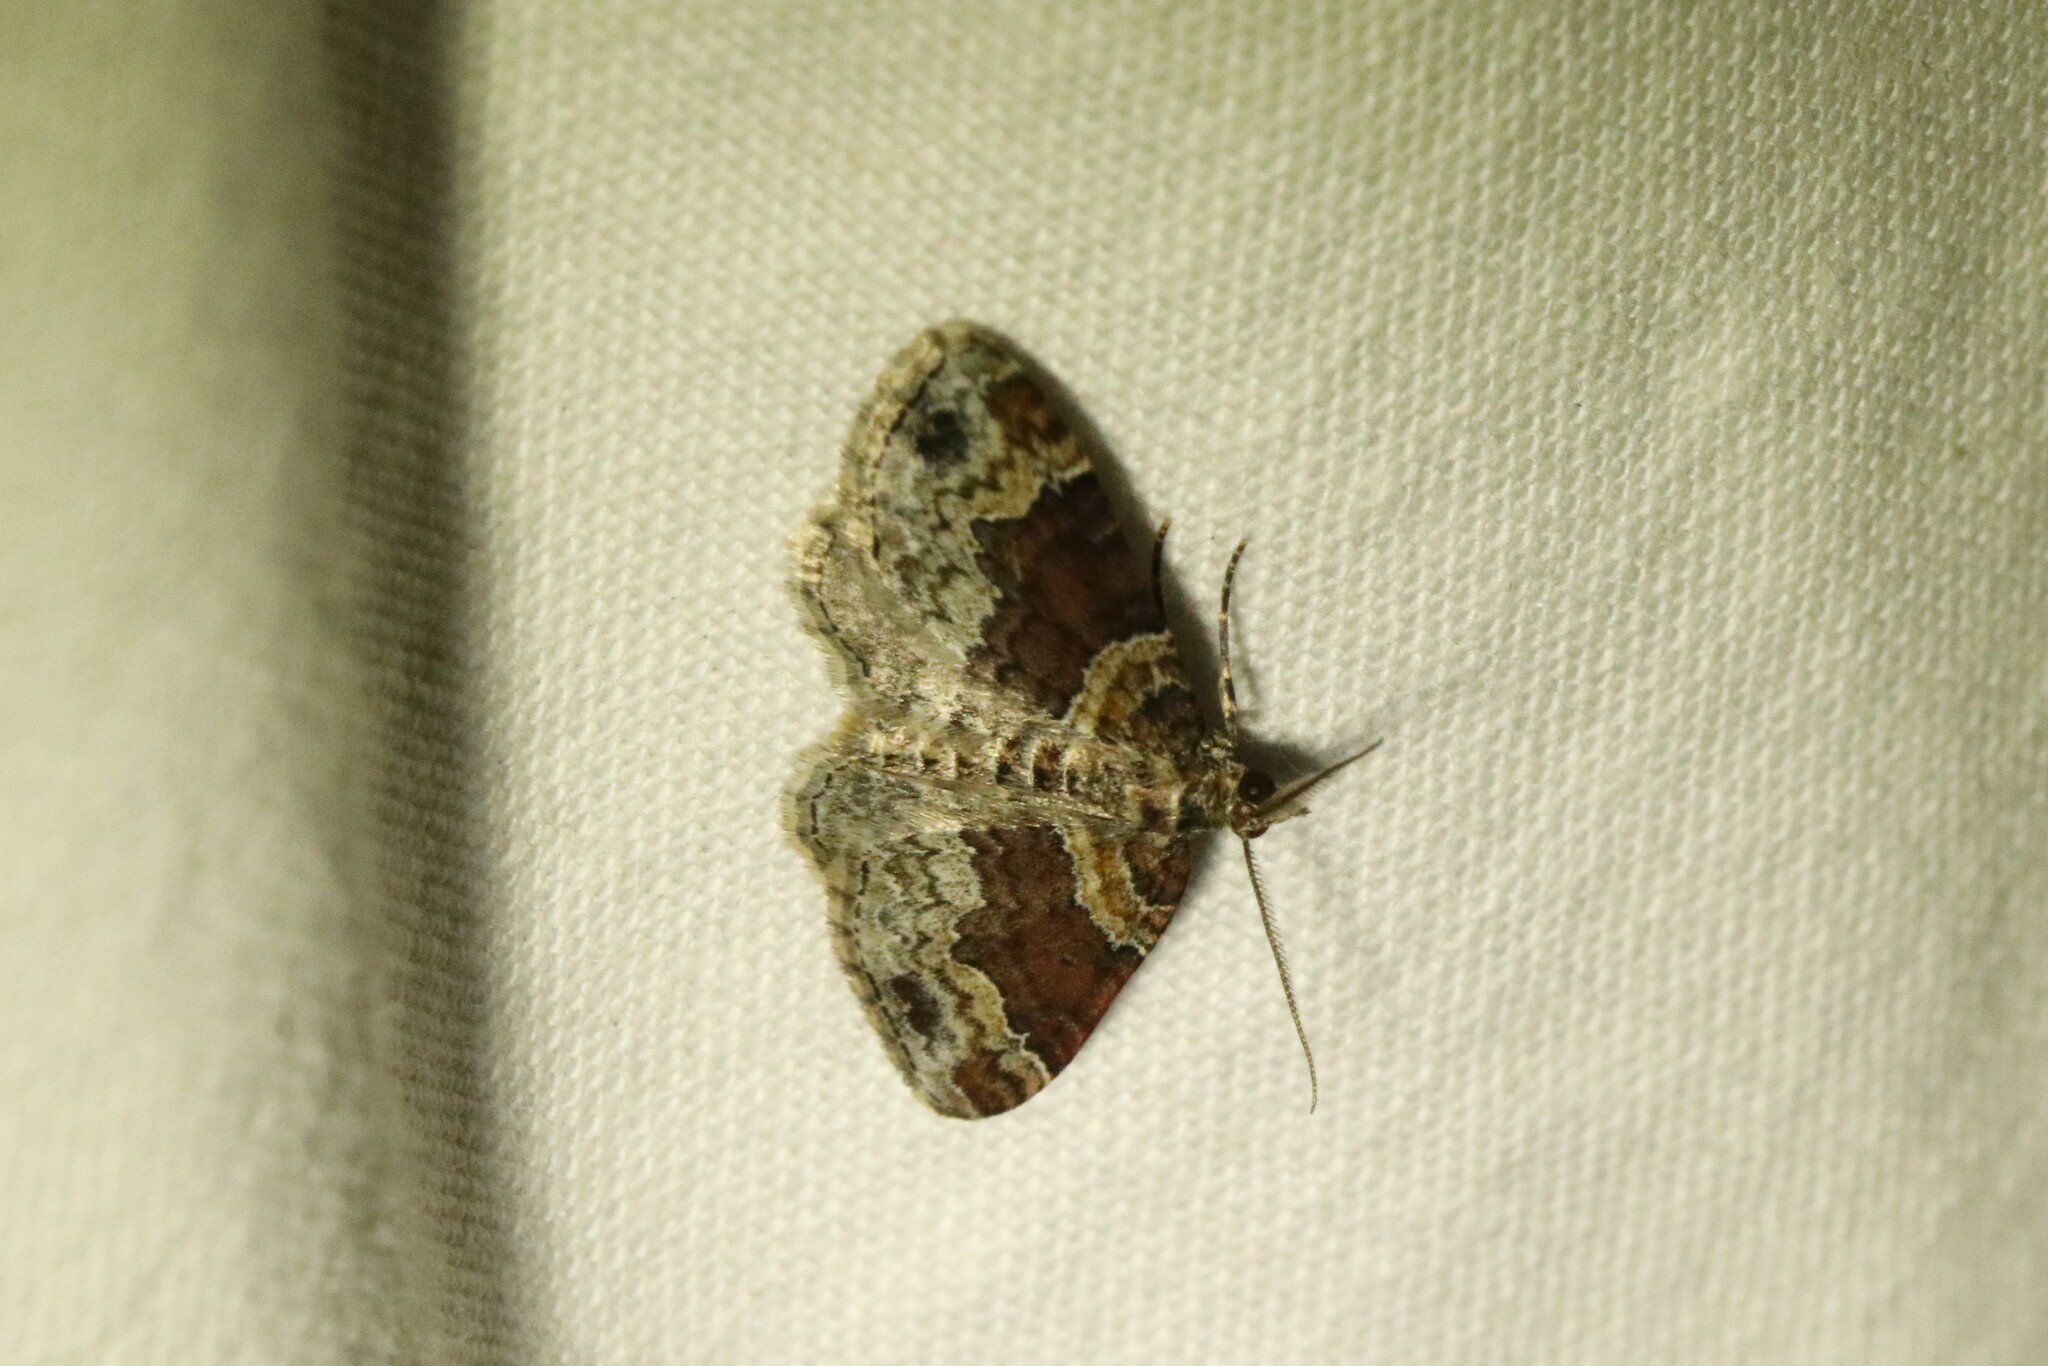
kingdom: Animalia
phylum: Arthropoda
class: Insecta
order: Lepidoptera
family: Geometridae
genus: Xanthorhoe
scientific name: Xanthorhoe ferrugata
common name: Dark-barred twin-spot carpet
